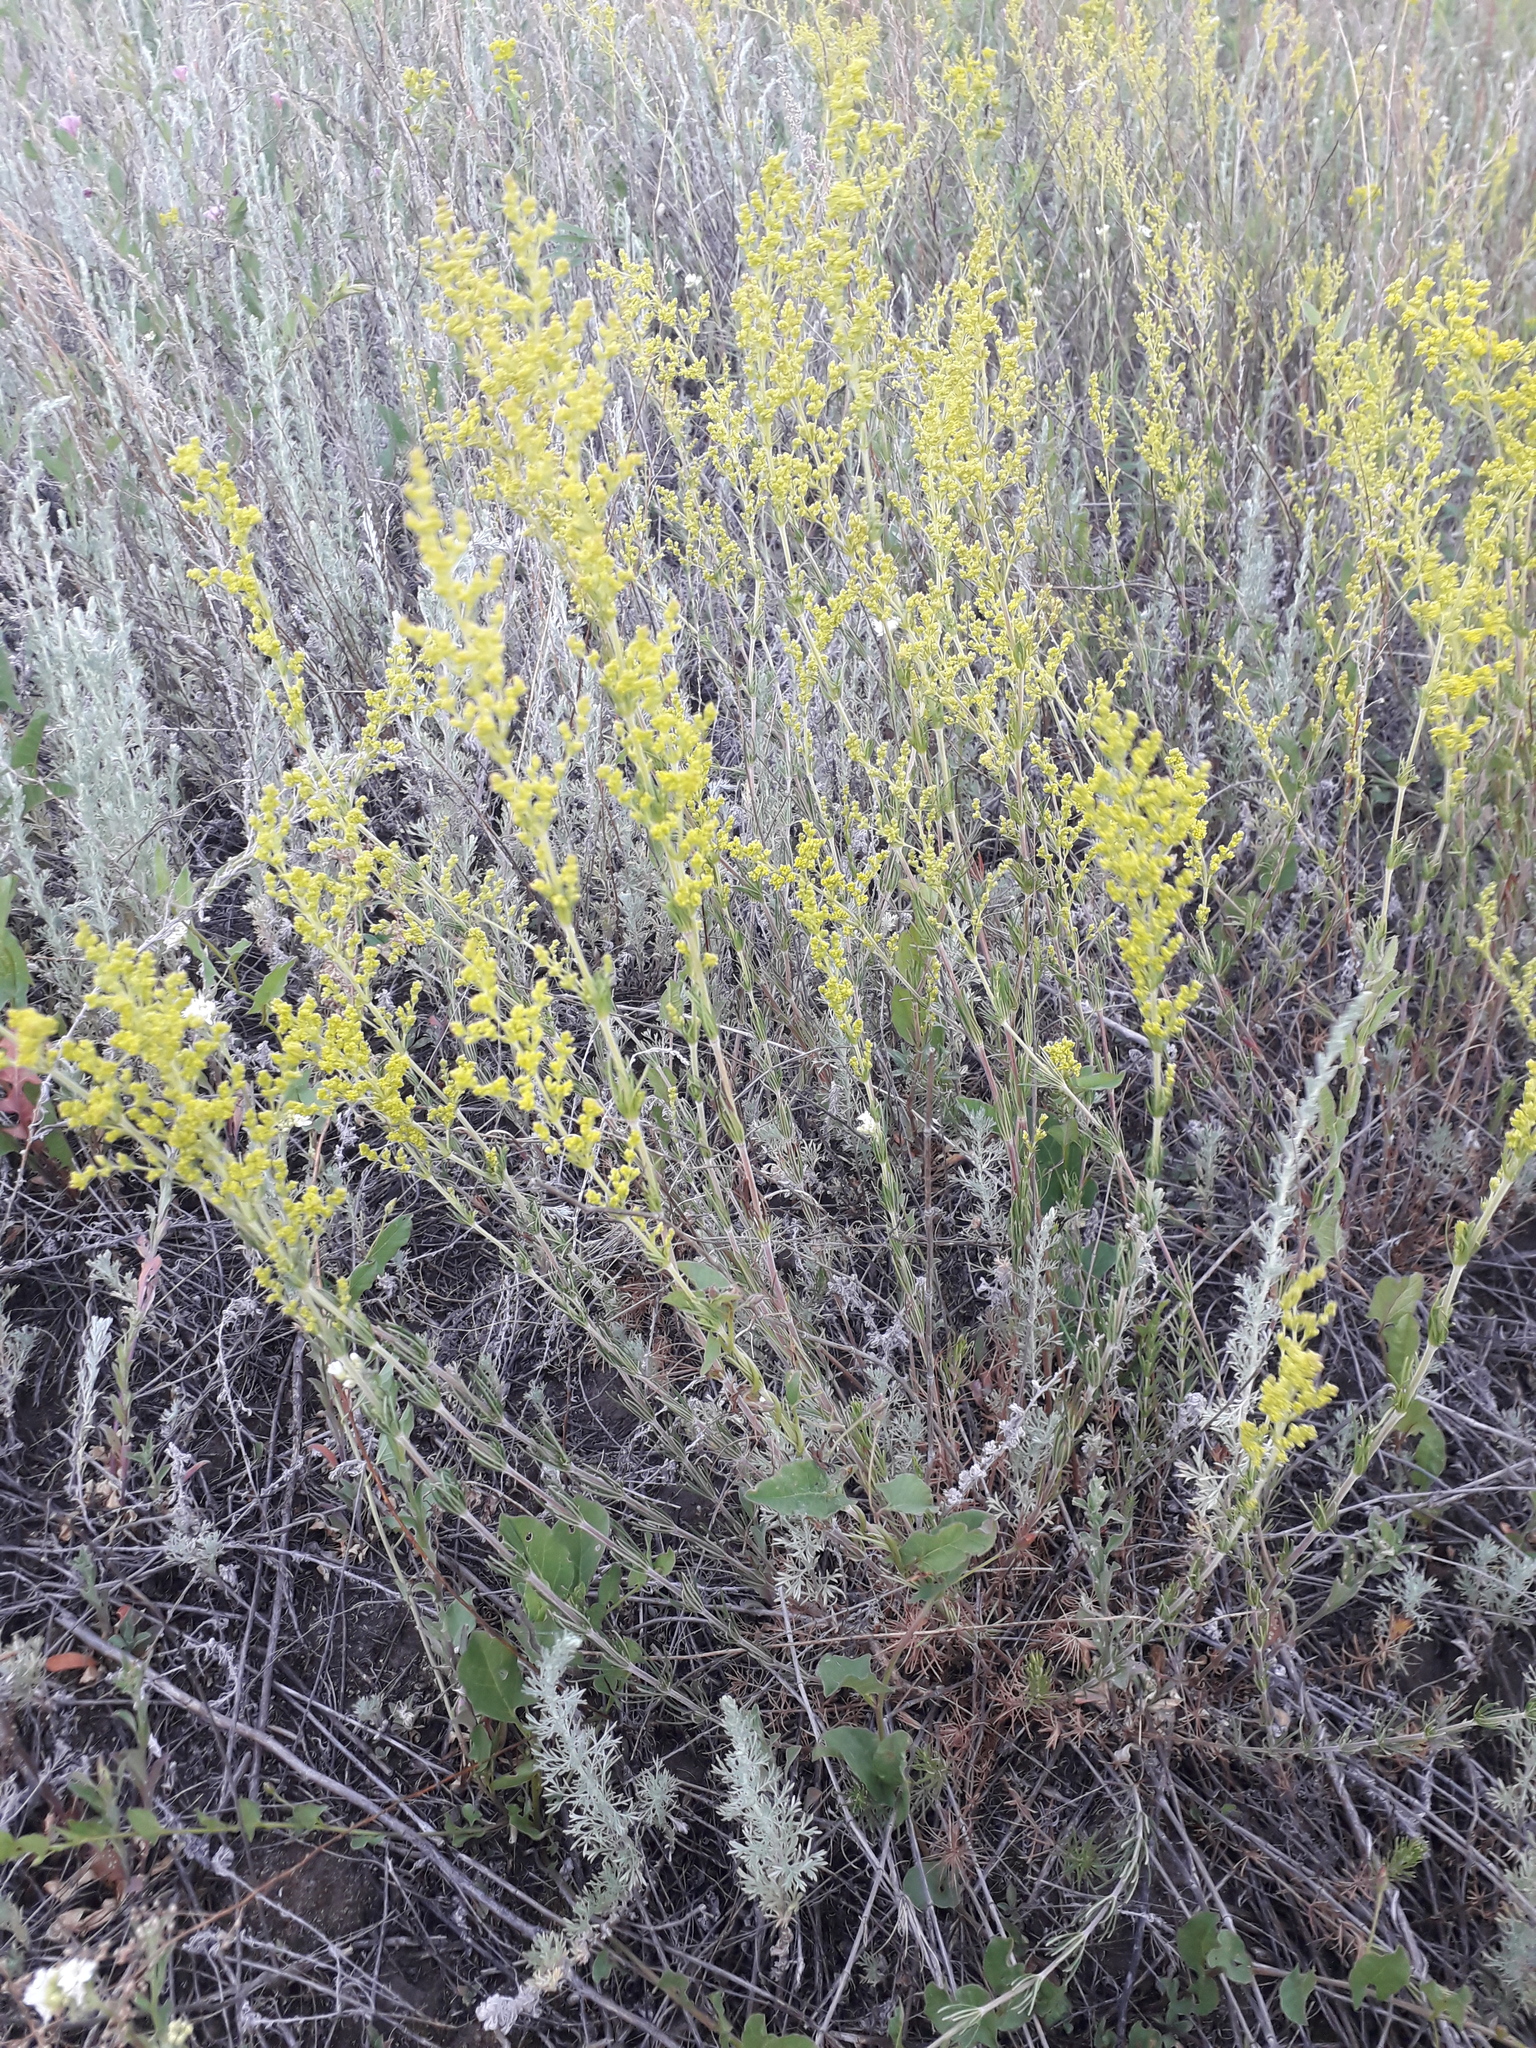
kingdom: Plantae
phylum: Tracheophyta
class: Magnoliopsida
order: Gentianales
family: Rubiaceae
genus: Galium
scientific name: Galium verum
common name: Lady's bedstraw
